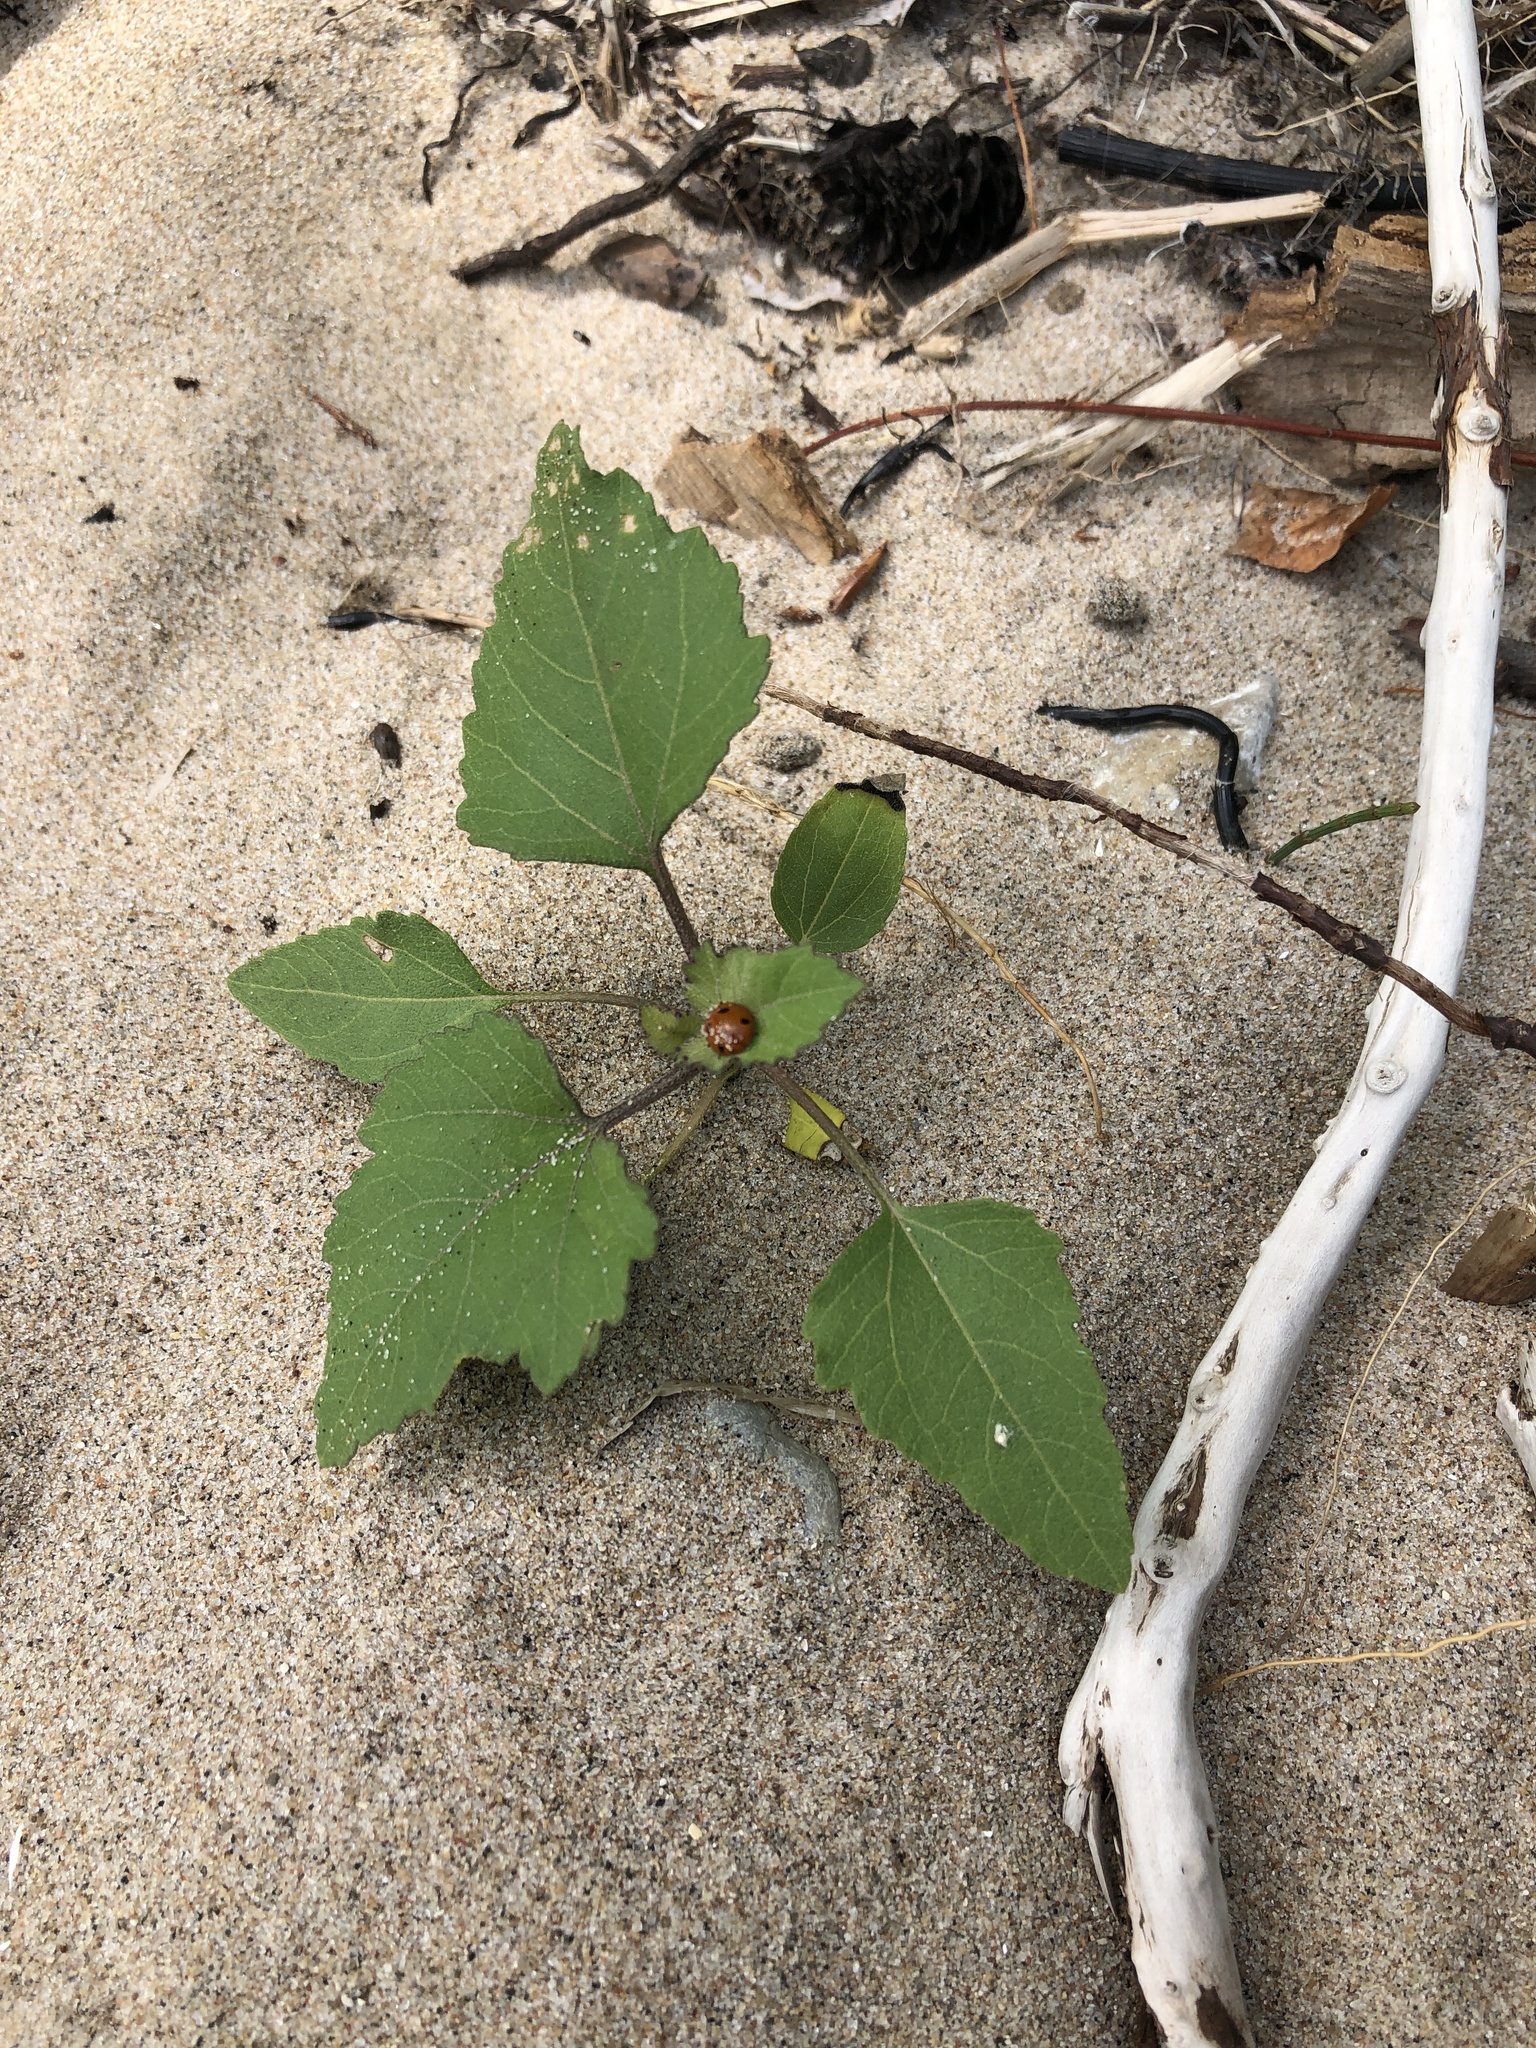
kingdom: Plantae
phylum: Tracheophyta
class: Magnoliopsida
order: Asterales
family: Asteraceae
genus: Xanthium
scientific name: Xanthium strumarium
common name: Rough cocklebur
